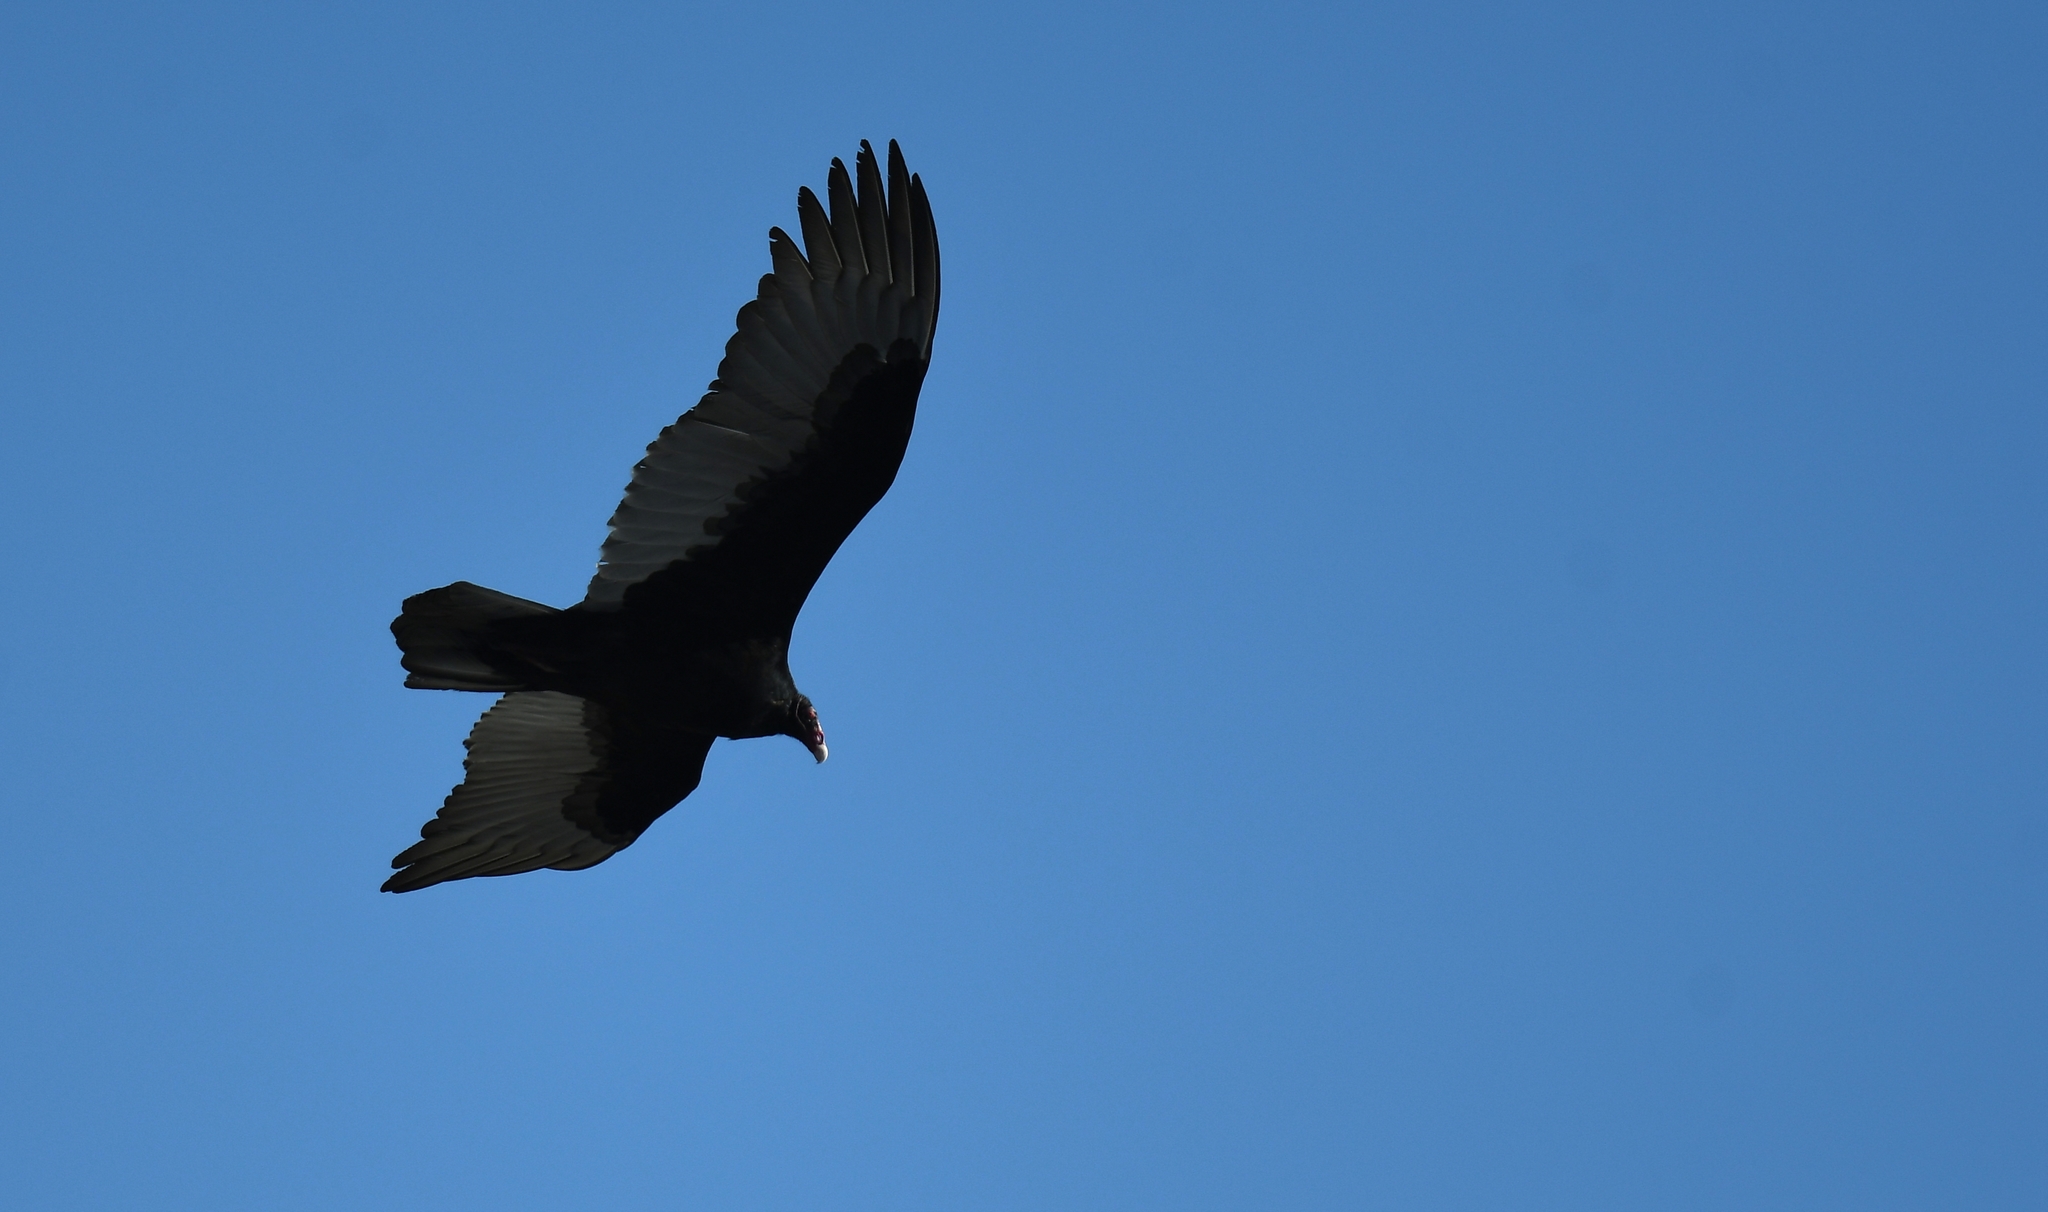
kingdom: Animalia
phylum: Chordata
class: Aves
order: Accipitriformes
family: Cathartidae
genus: Cathartes
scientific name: Cathartes aura
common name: Turkey vulture
